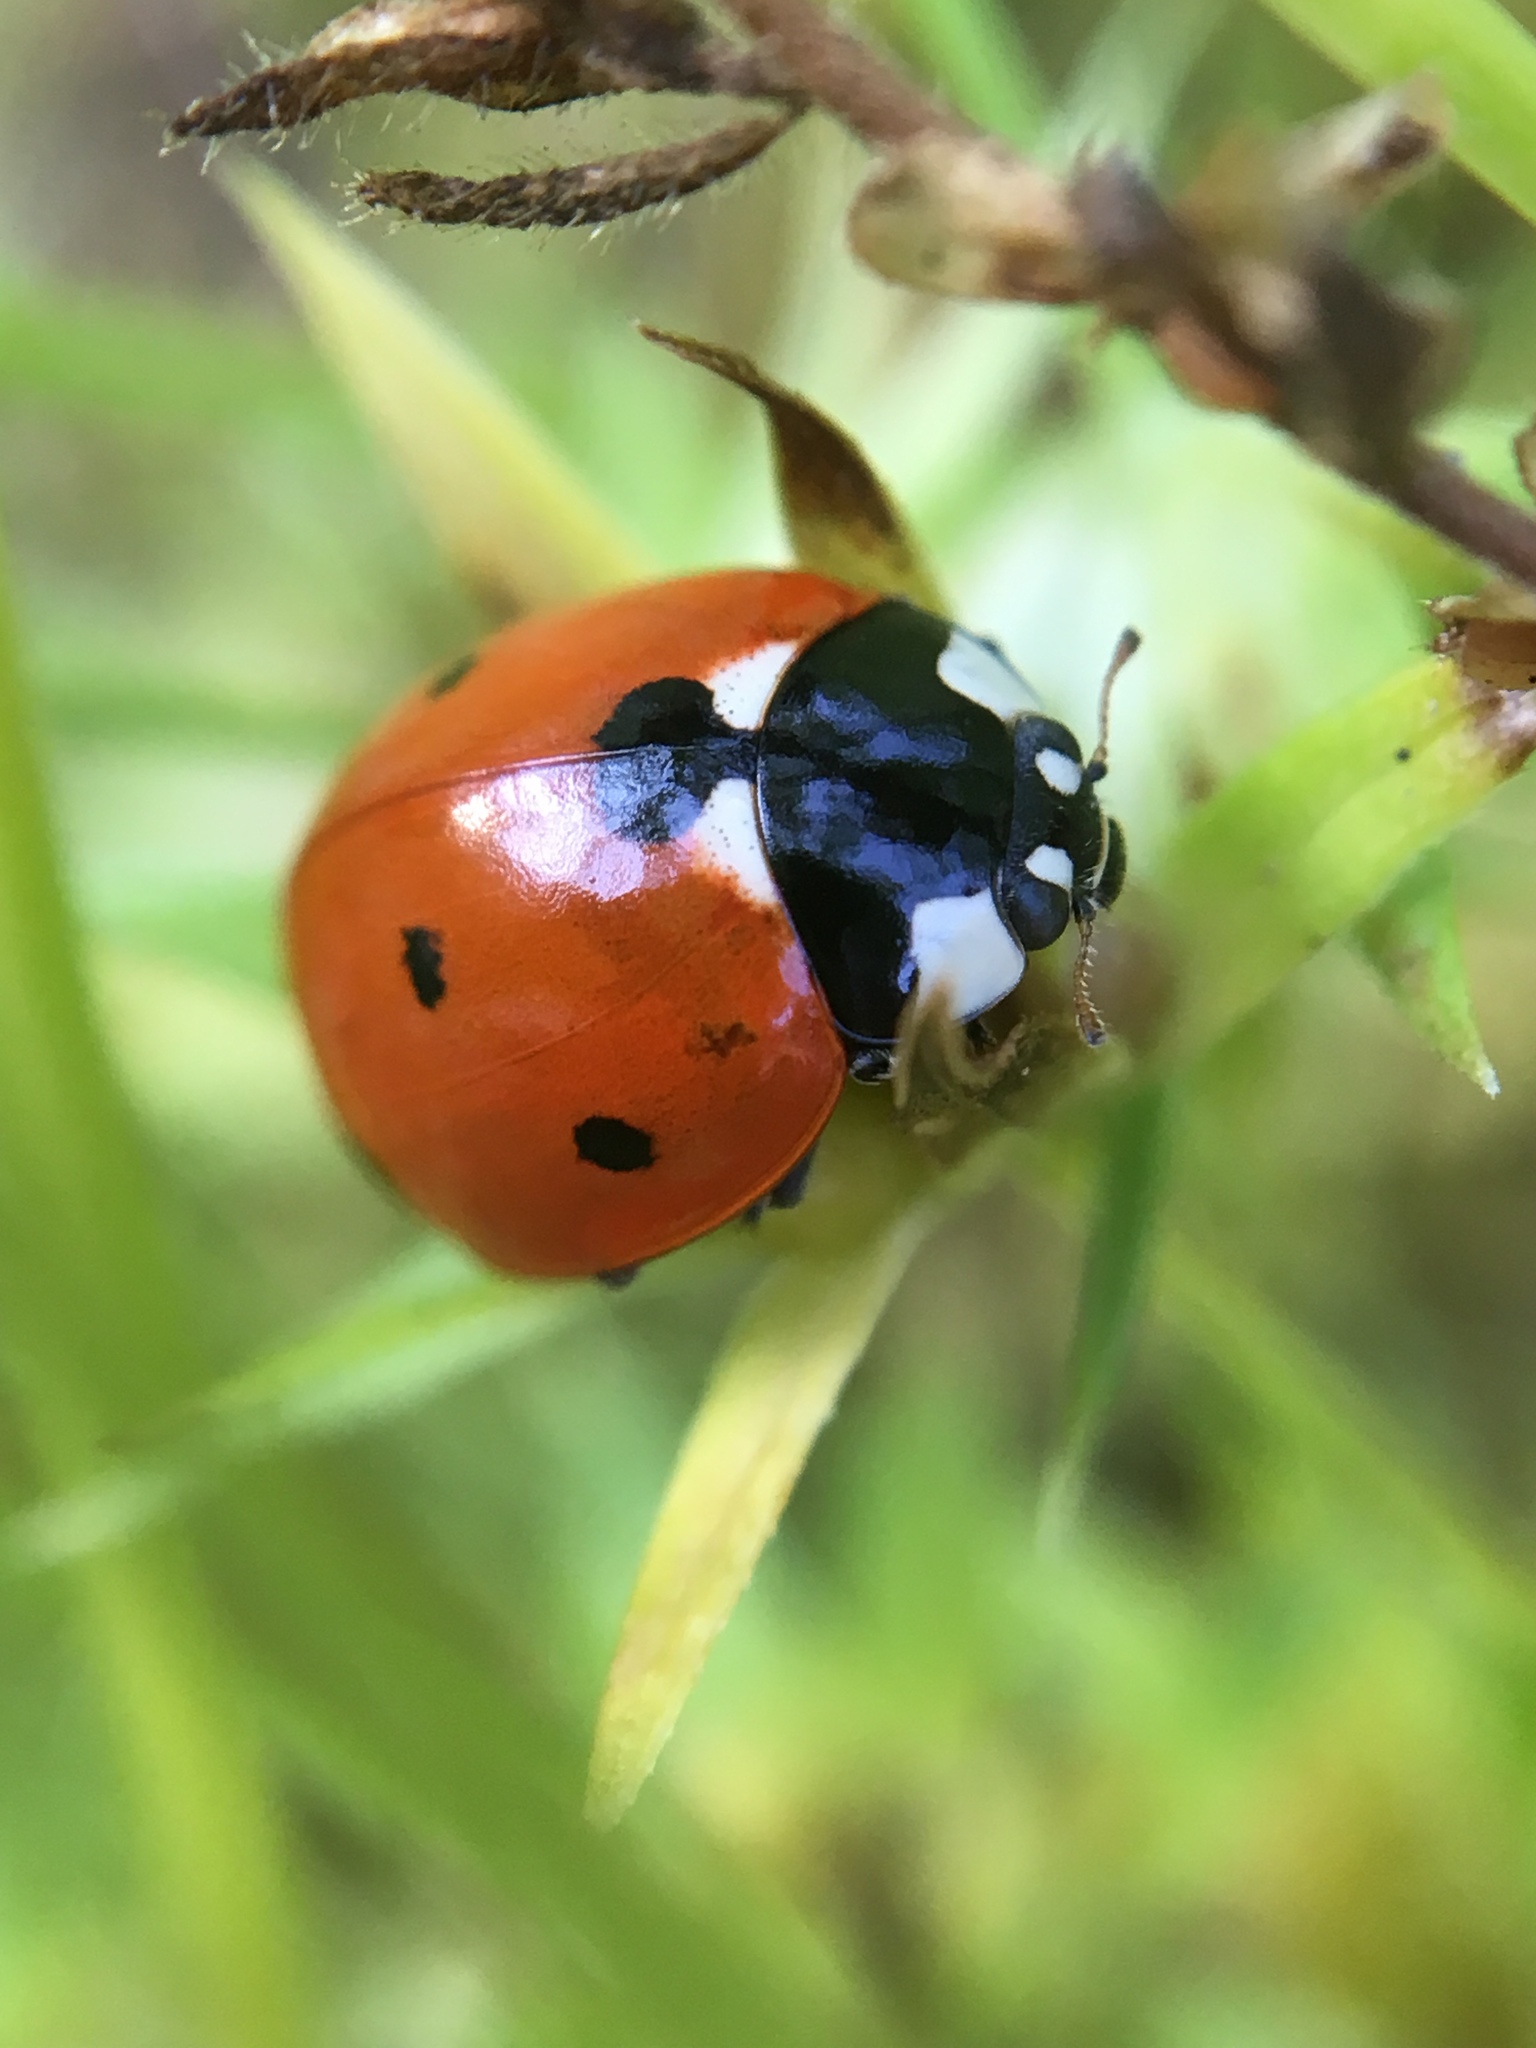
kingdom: Animalia
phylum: Arthropoda
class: Insecta
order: Coleoptera
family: Coccinellidae
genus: Coccinella
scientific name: Coccinella septempunctata
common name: Sevenspotted lady beetle
